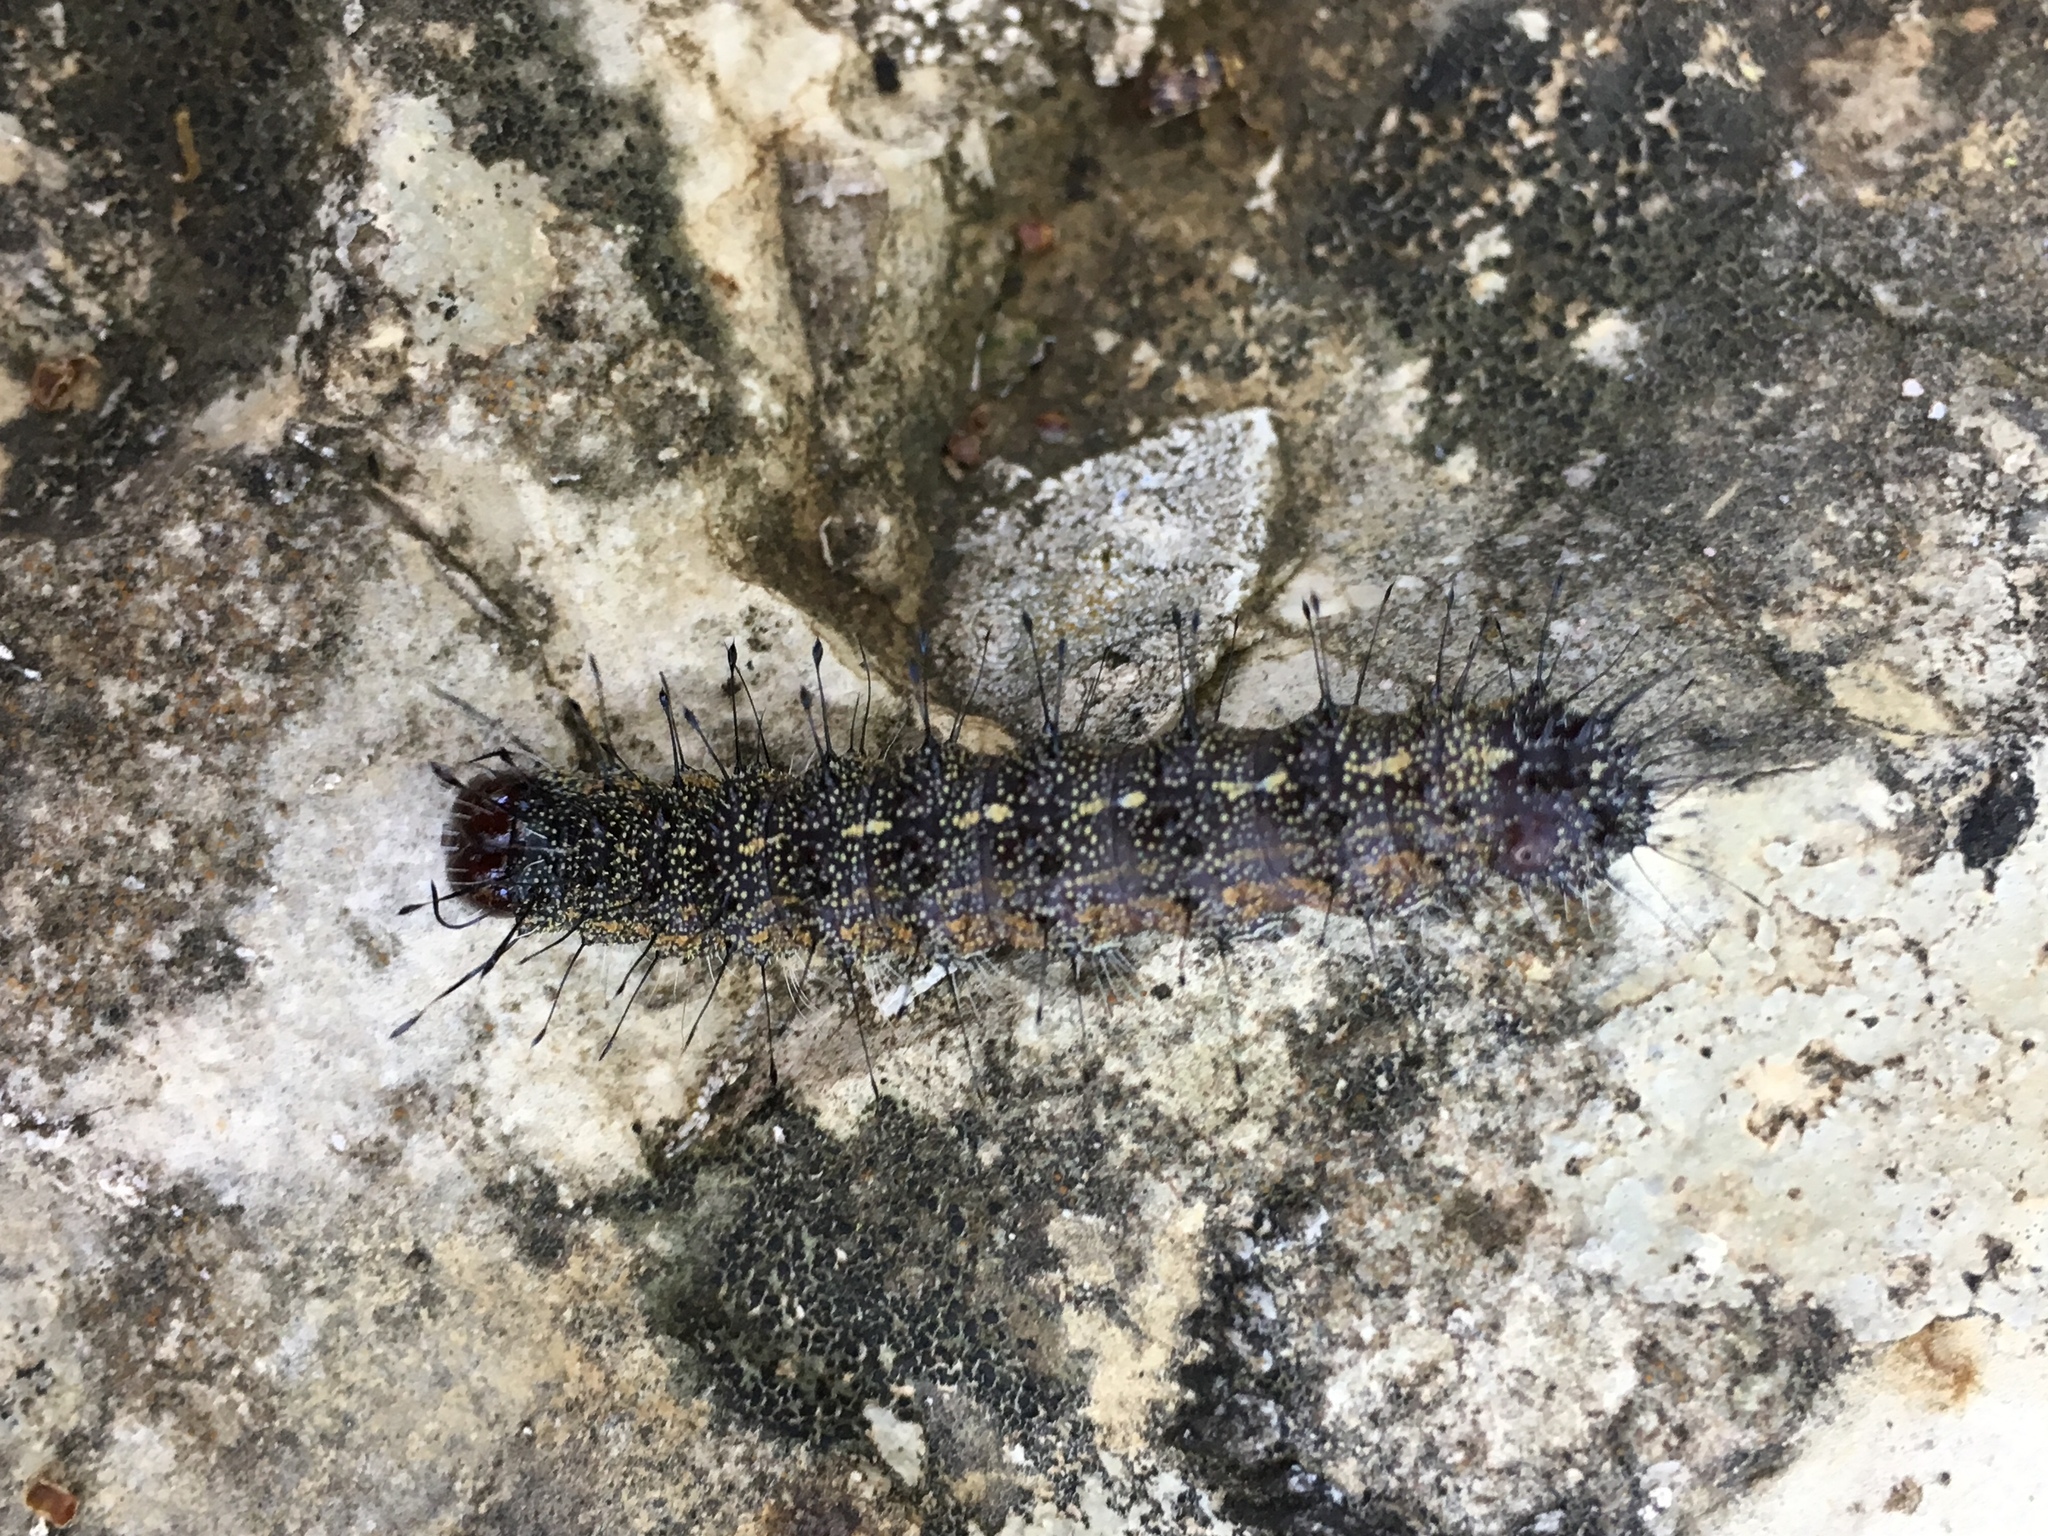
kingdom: Animalia
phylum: Arthropoda
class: Insecta
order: Lepidoptera
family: Noctuidae
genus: Acronicta
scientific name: Acronicta atristrigatus
